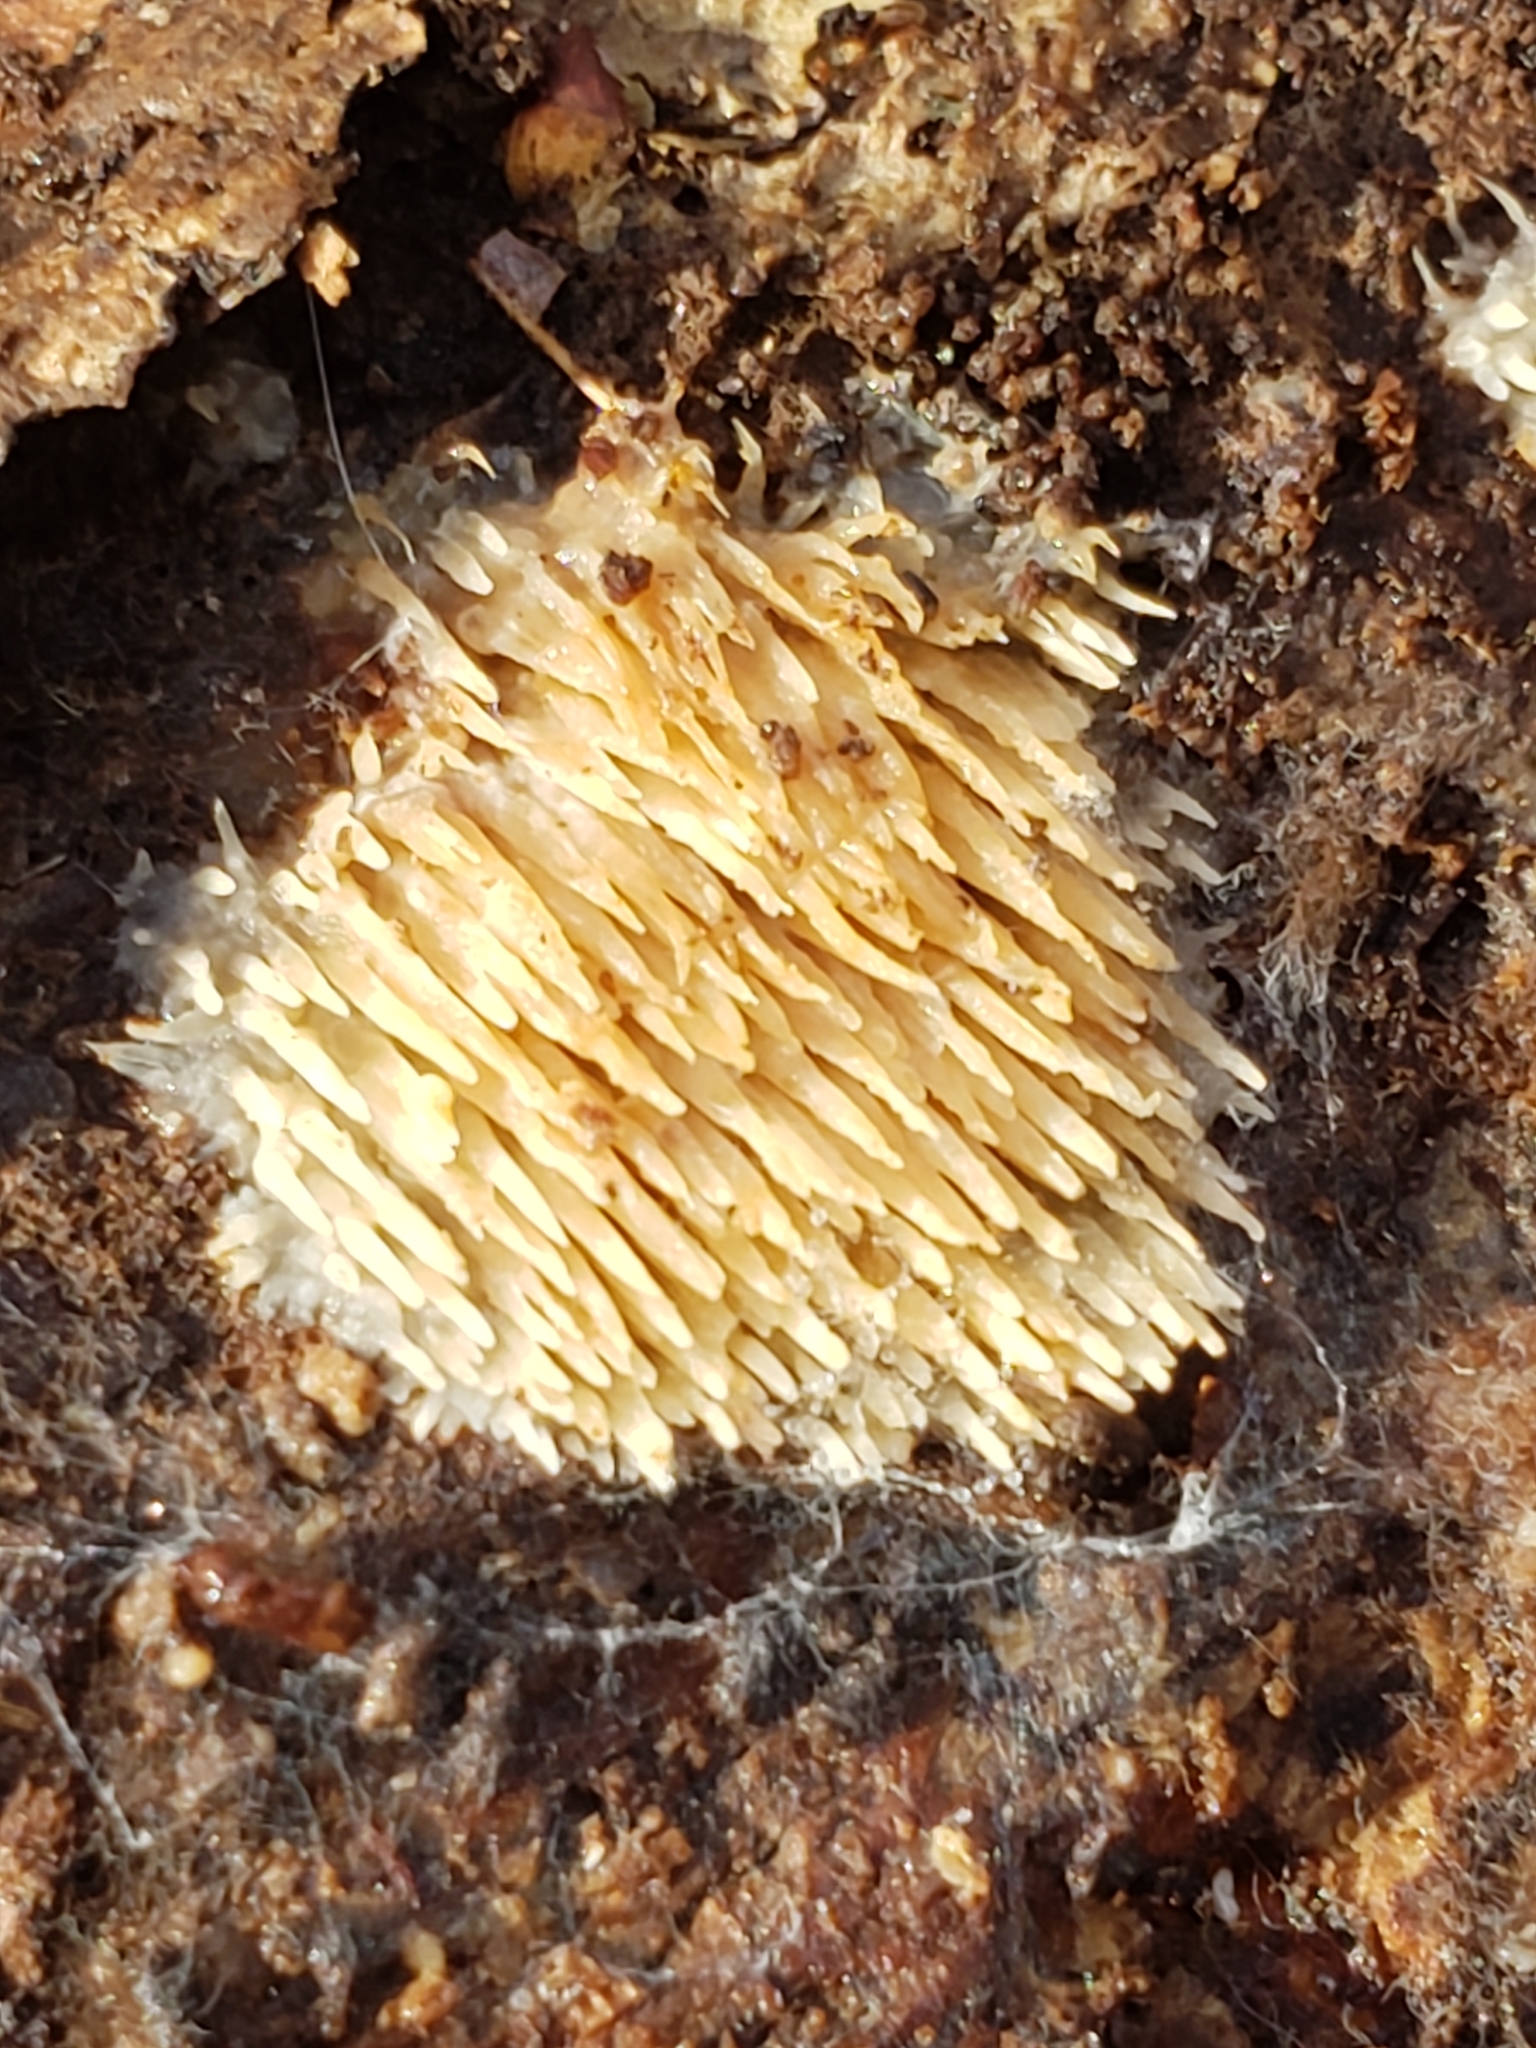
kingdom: Fungi
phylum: Basidiomycota
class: Agaricomycetes
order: Agaricales
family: Radulomycetaceae
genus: Radulomyces
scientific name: Radulomyces copelandii
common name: Asian beauty
